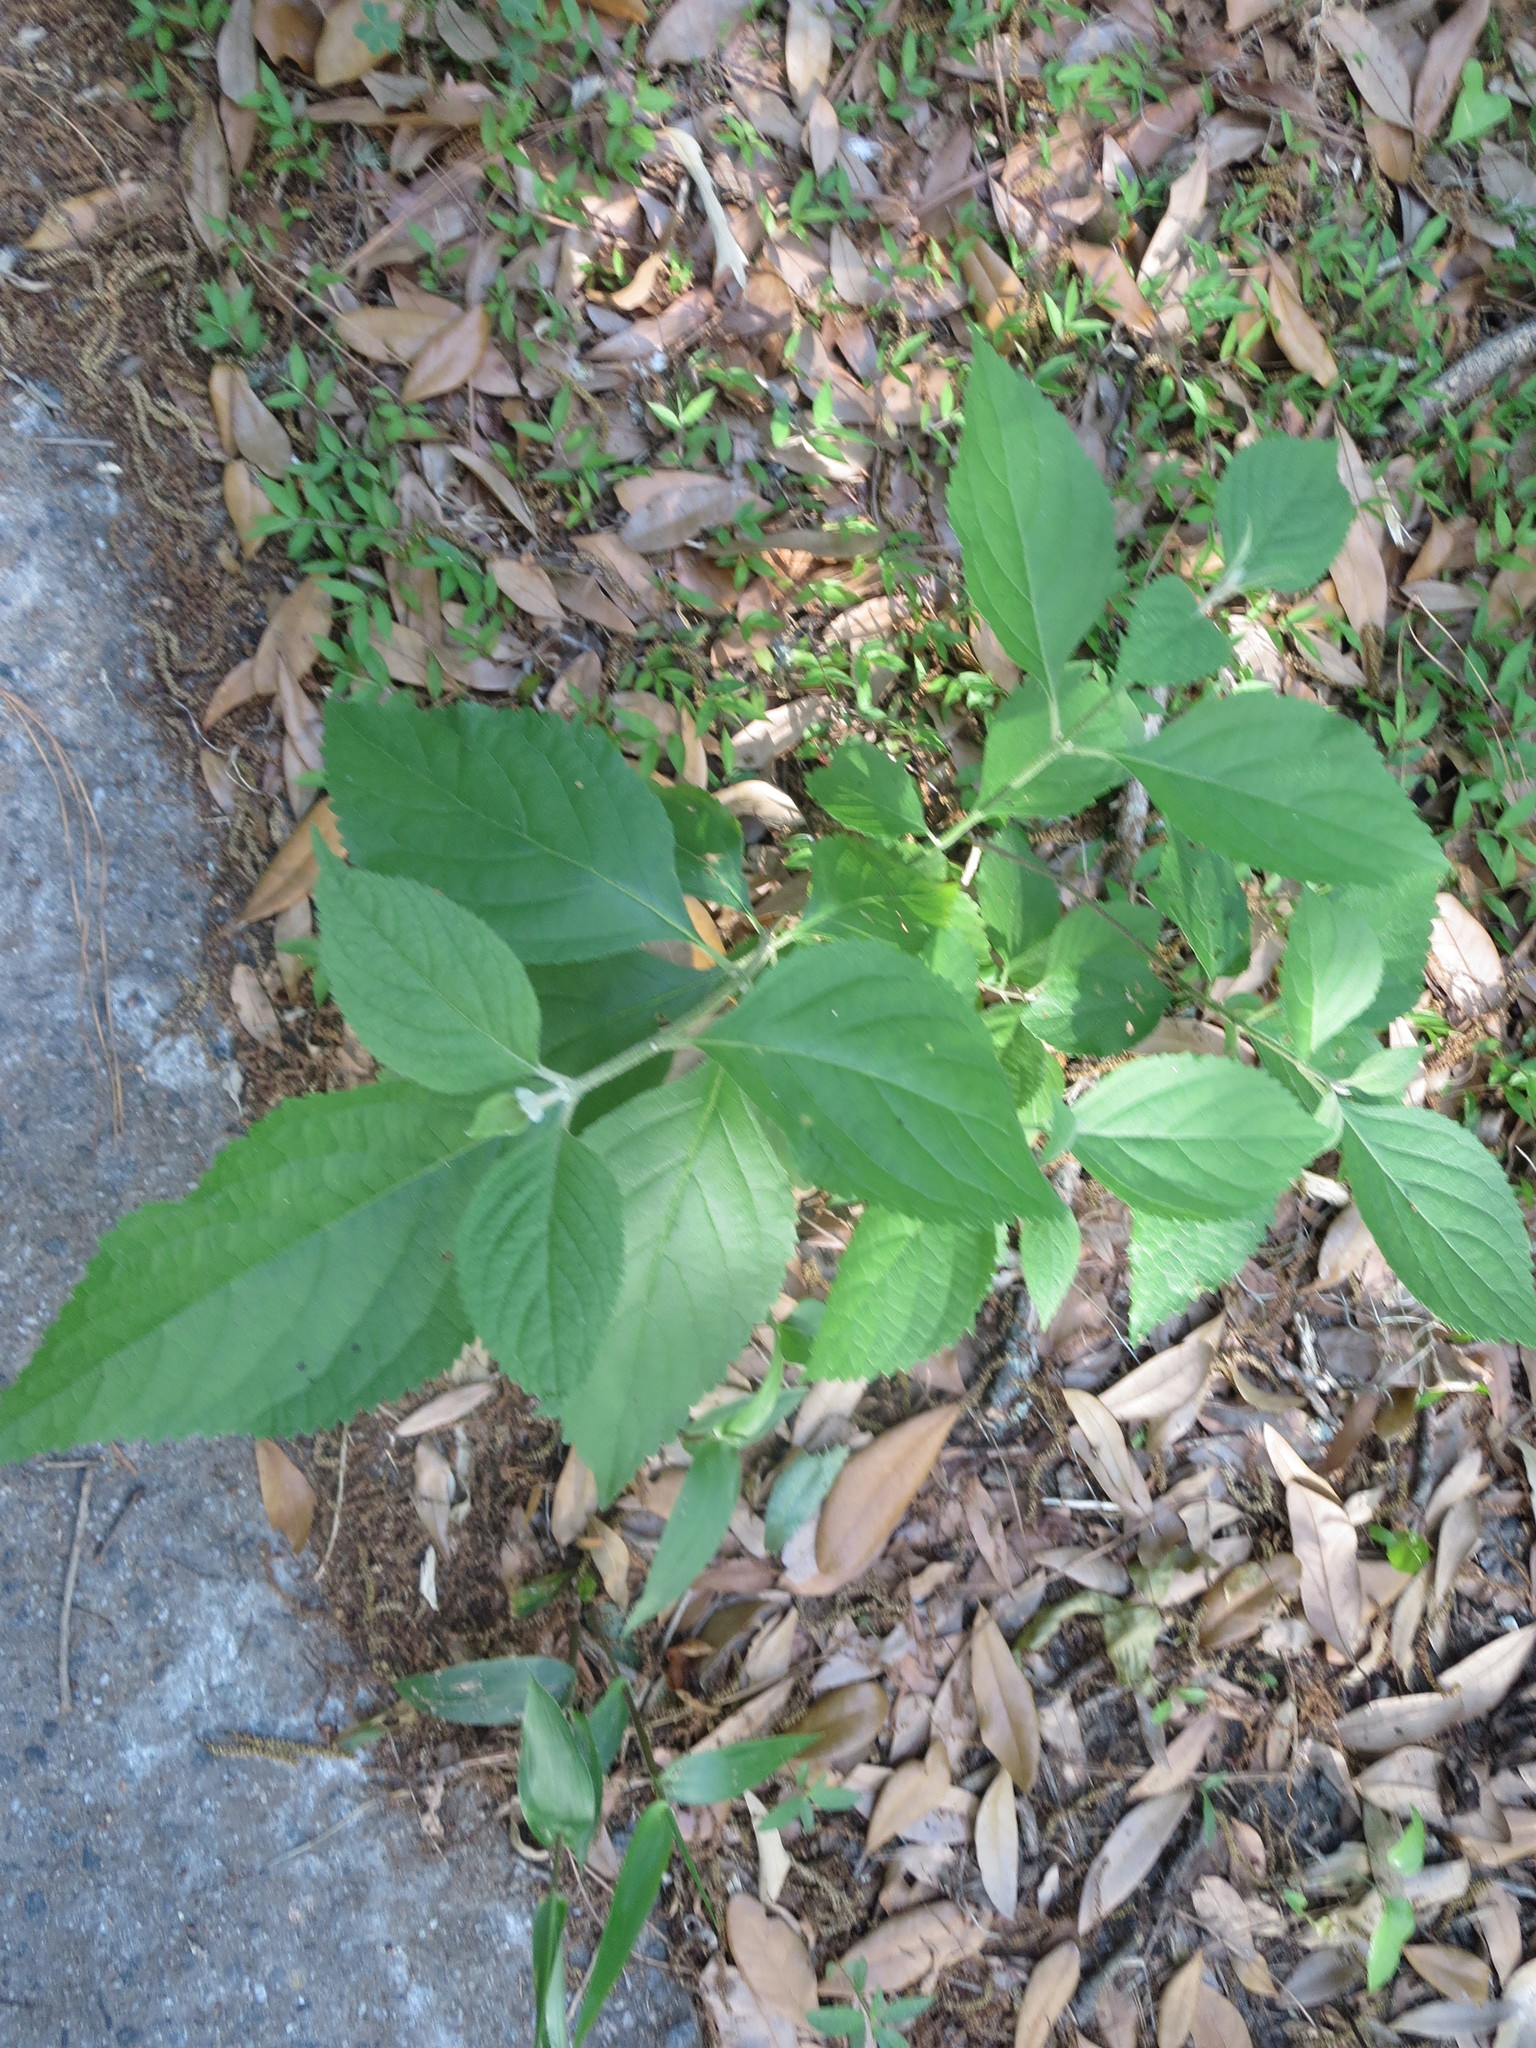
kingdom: Plantae
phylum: Tracheophyta
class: Magnoliopsida
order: Lamiales
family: Lamiaceae
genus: Callicarpa
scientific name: Callicarpa americana
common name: American beautyberry
